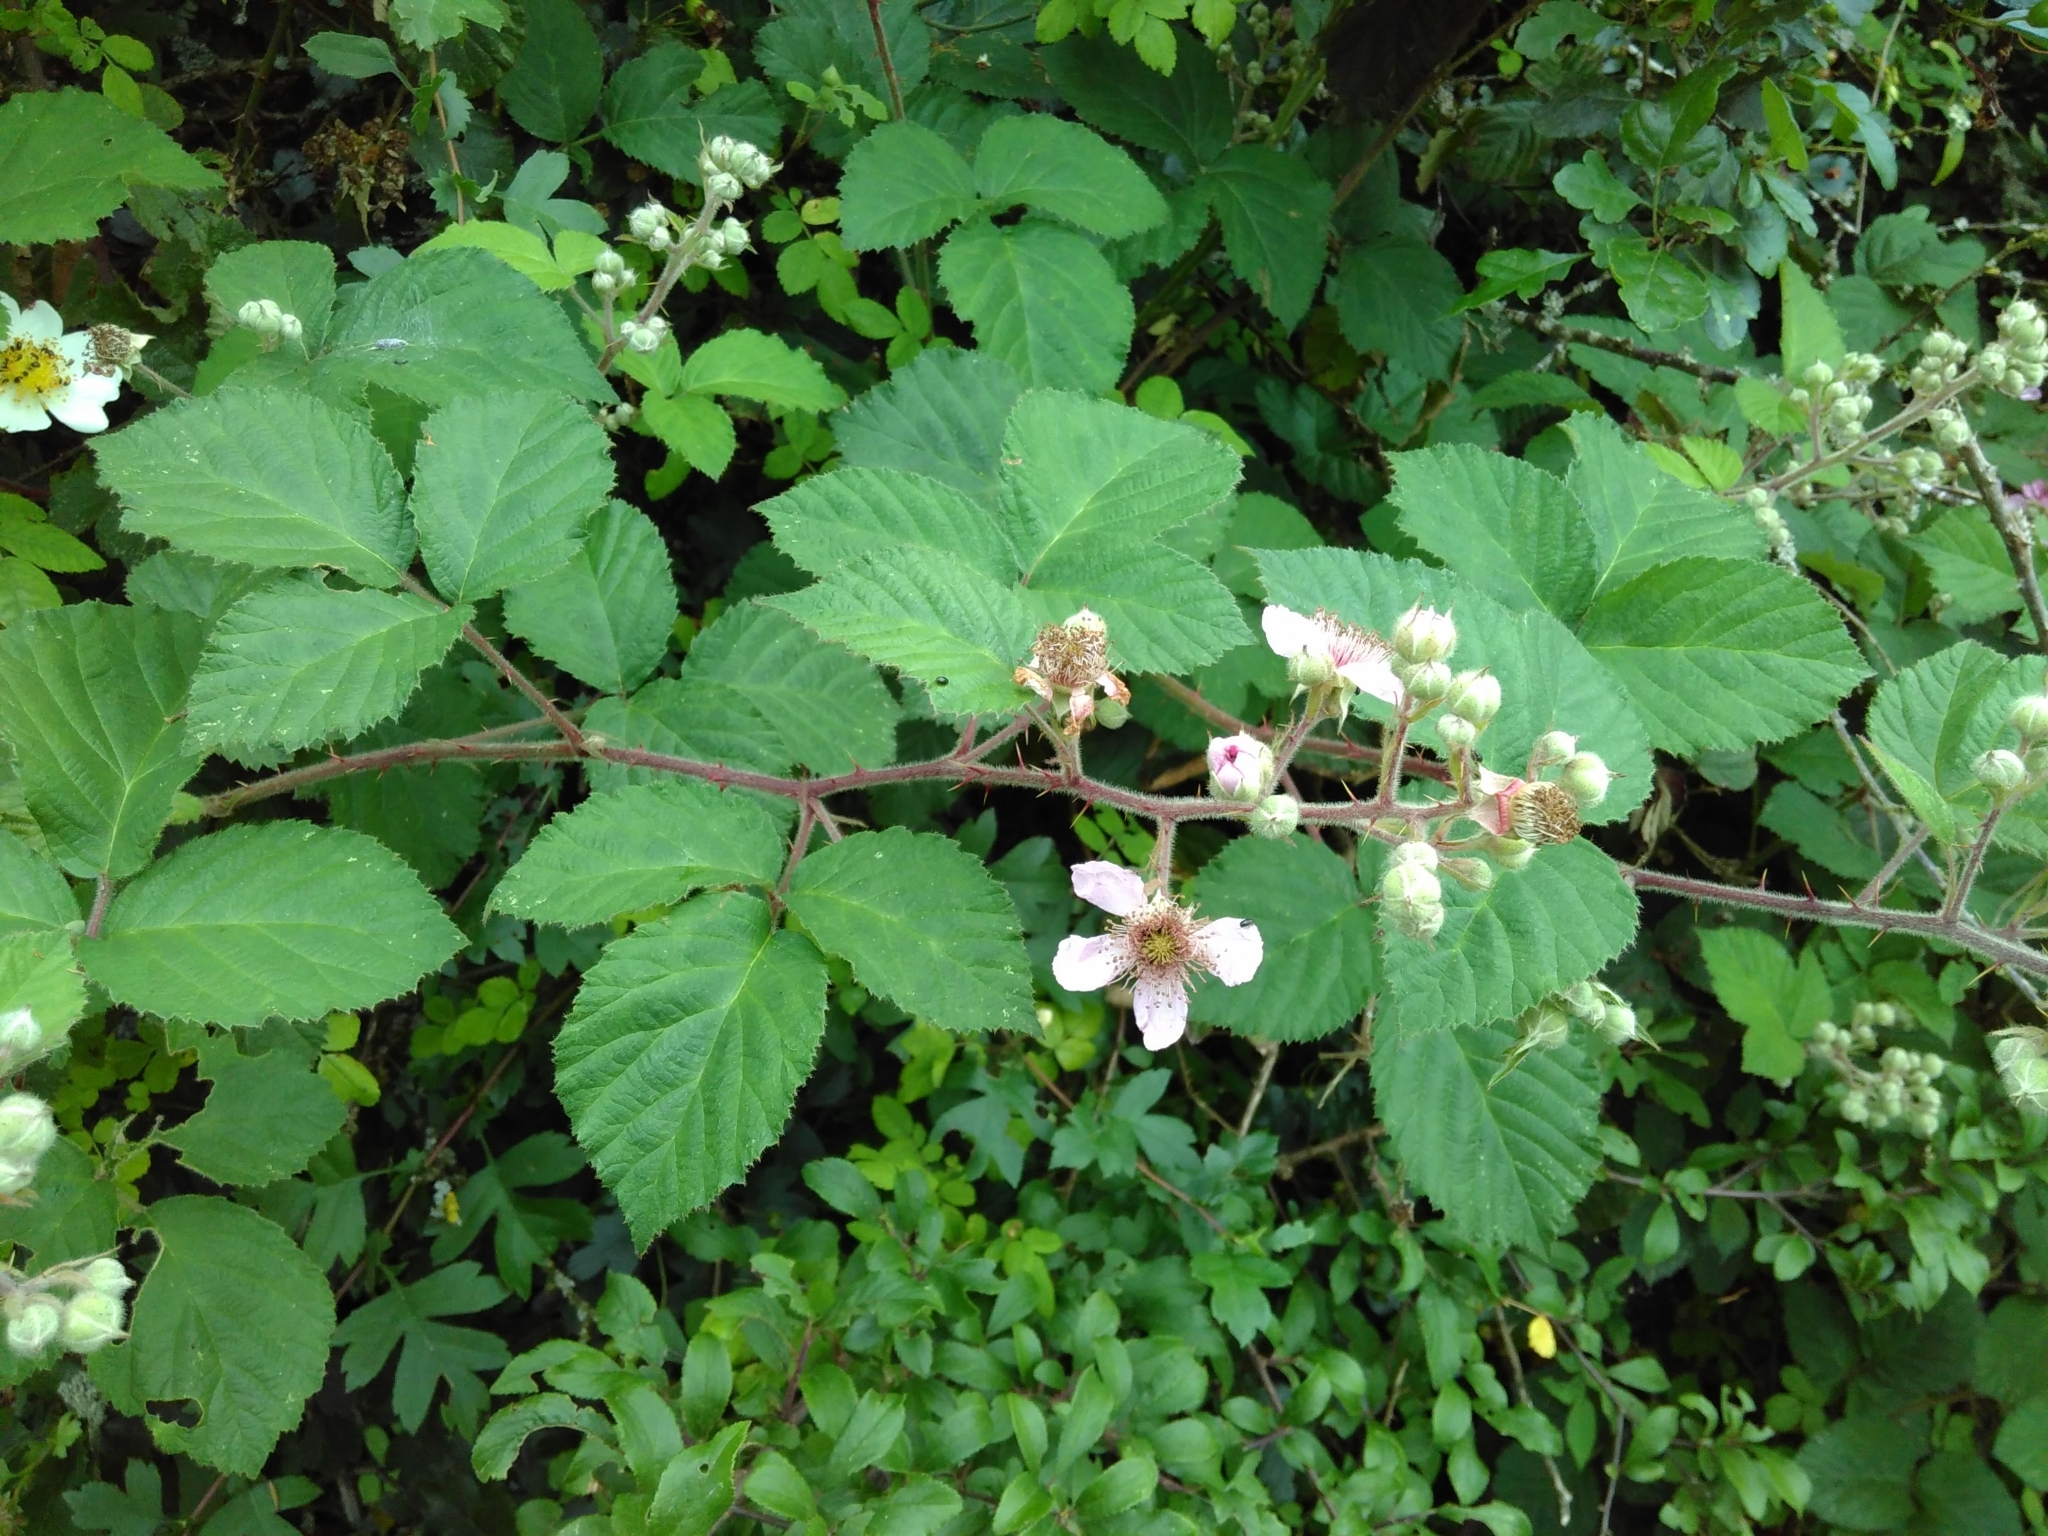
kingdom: Plantae
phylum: Tracheophyta
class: Magnoliopsida
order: Rosales
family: Rosaceae
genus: Rubus
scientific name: Rubus vestitus
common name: European blackberry
